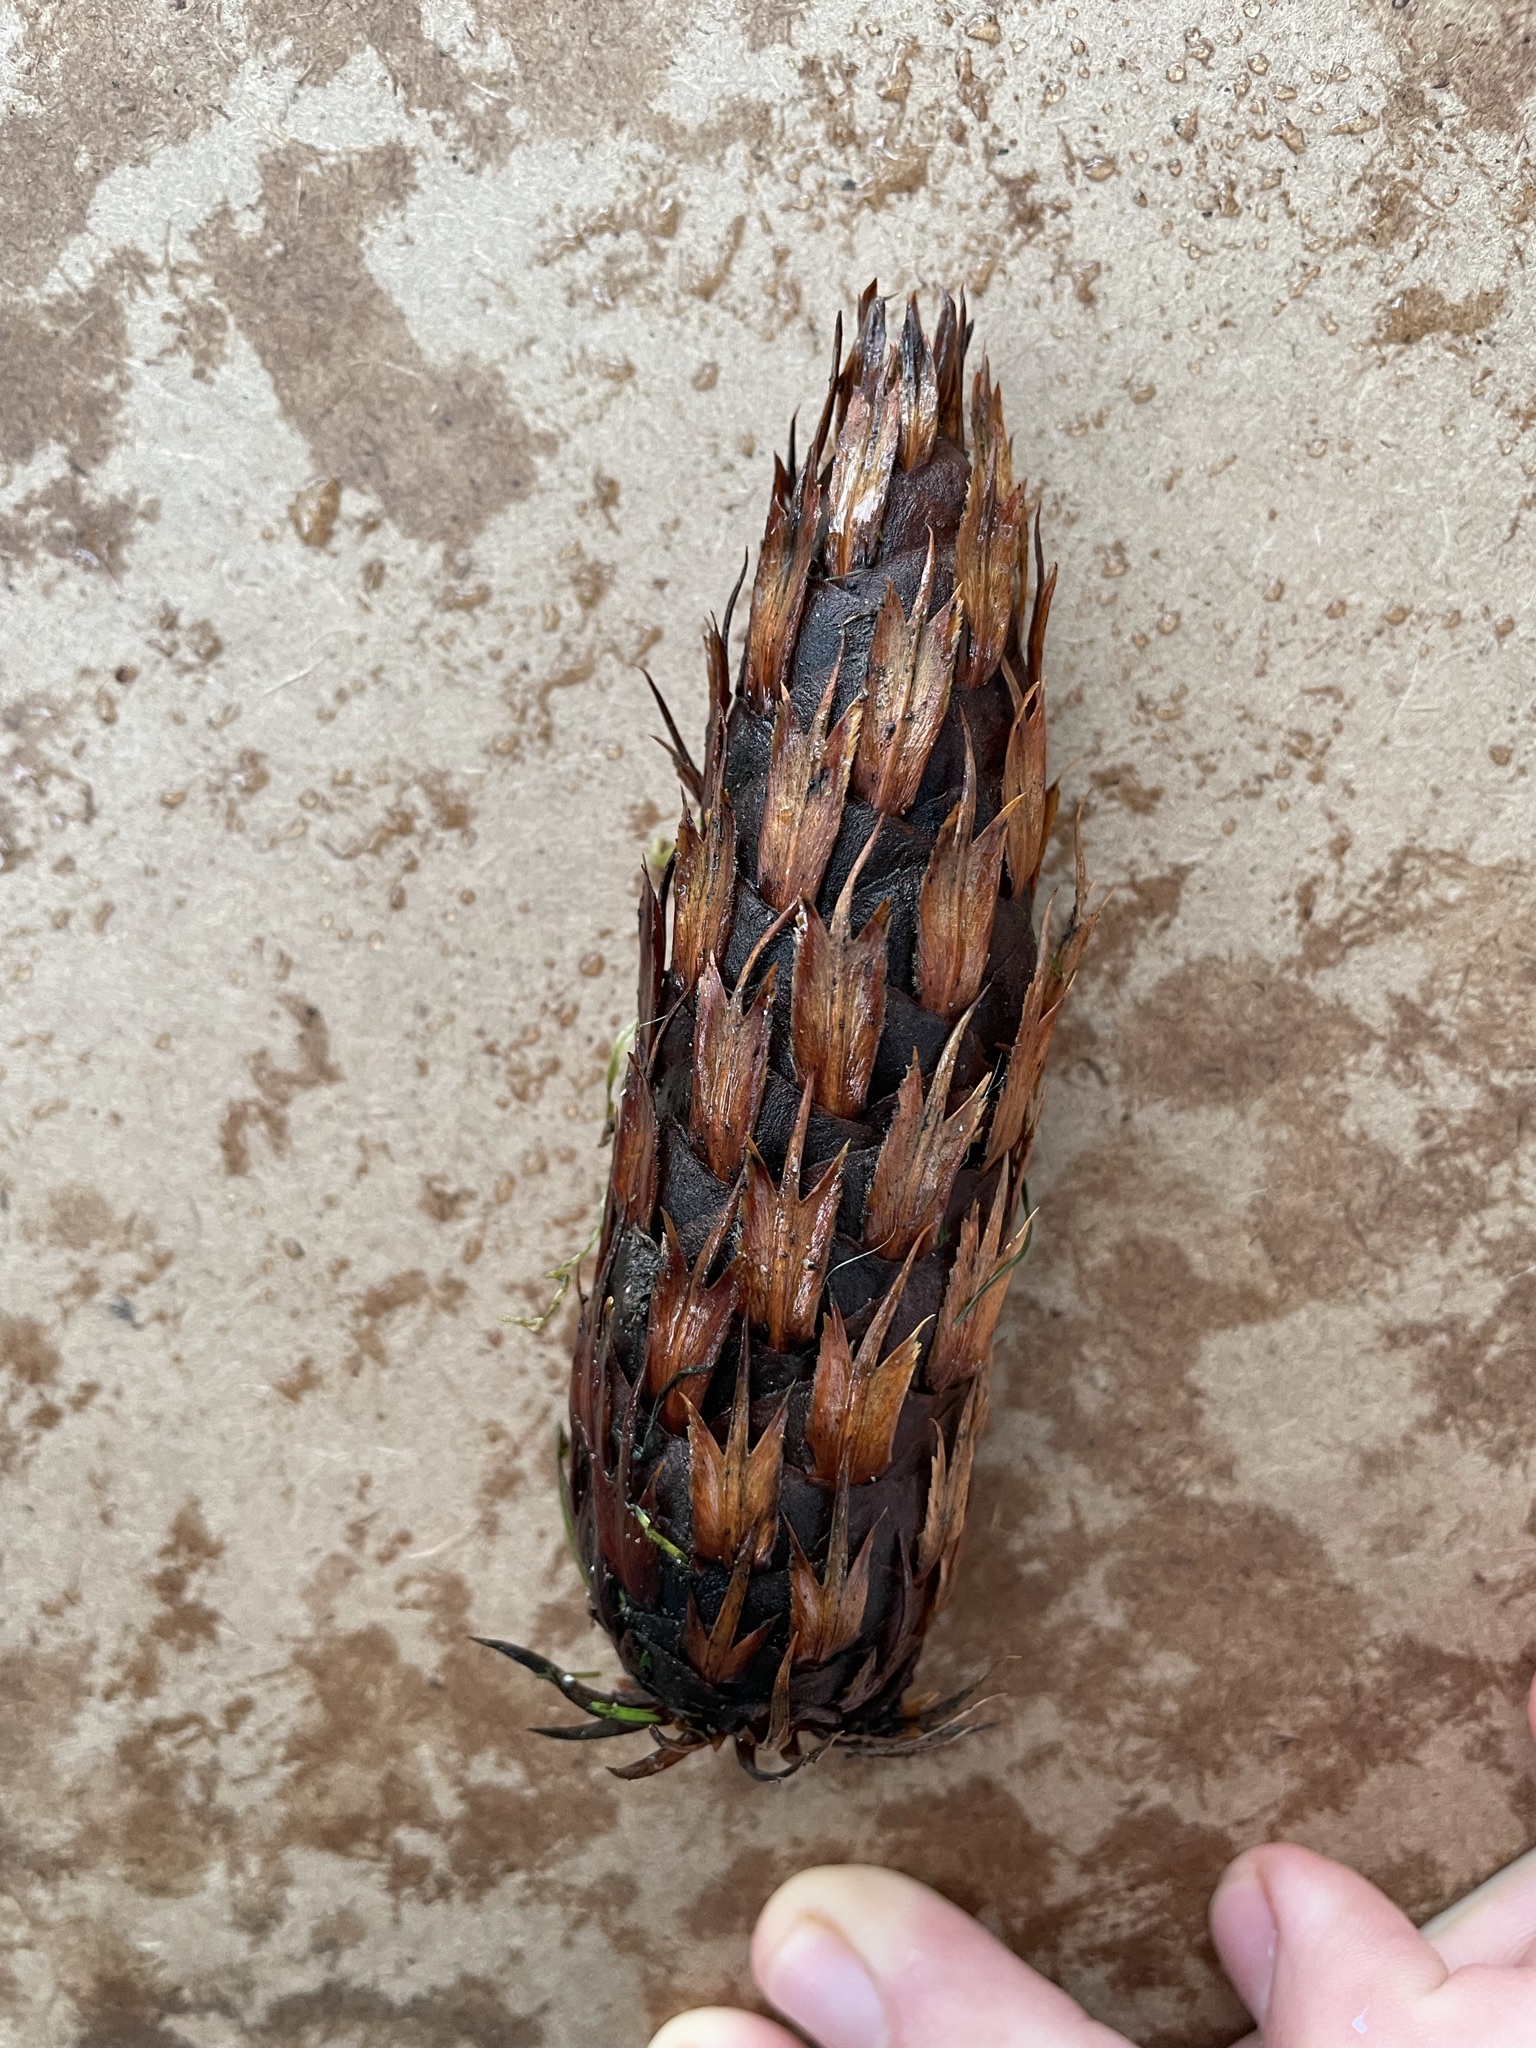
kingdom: Plantae
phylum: Tracheophyta
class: Pinopsida
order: Pinales
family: Pinaceae
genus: Pseudotsuga
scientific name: Pseudotsuga menziesii
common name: Douglas fir
